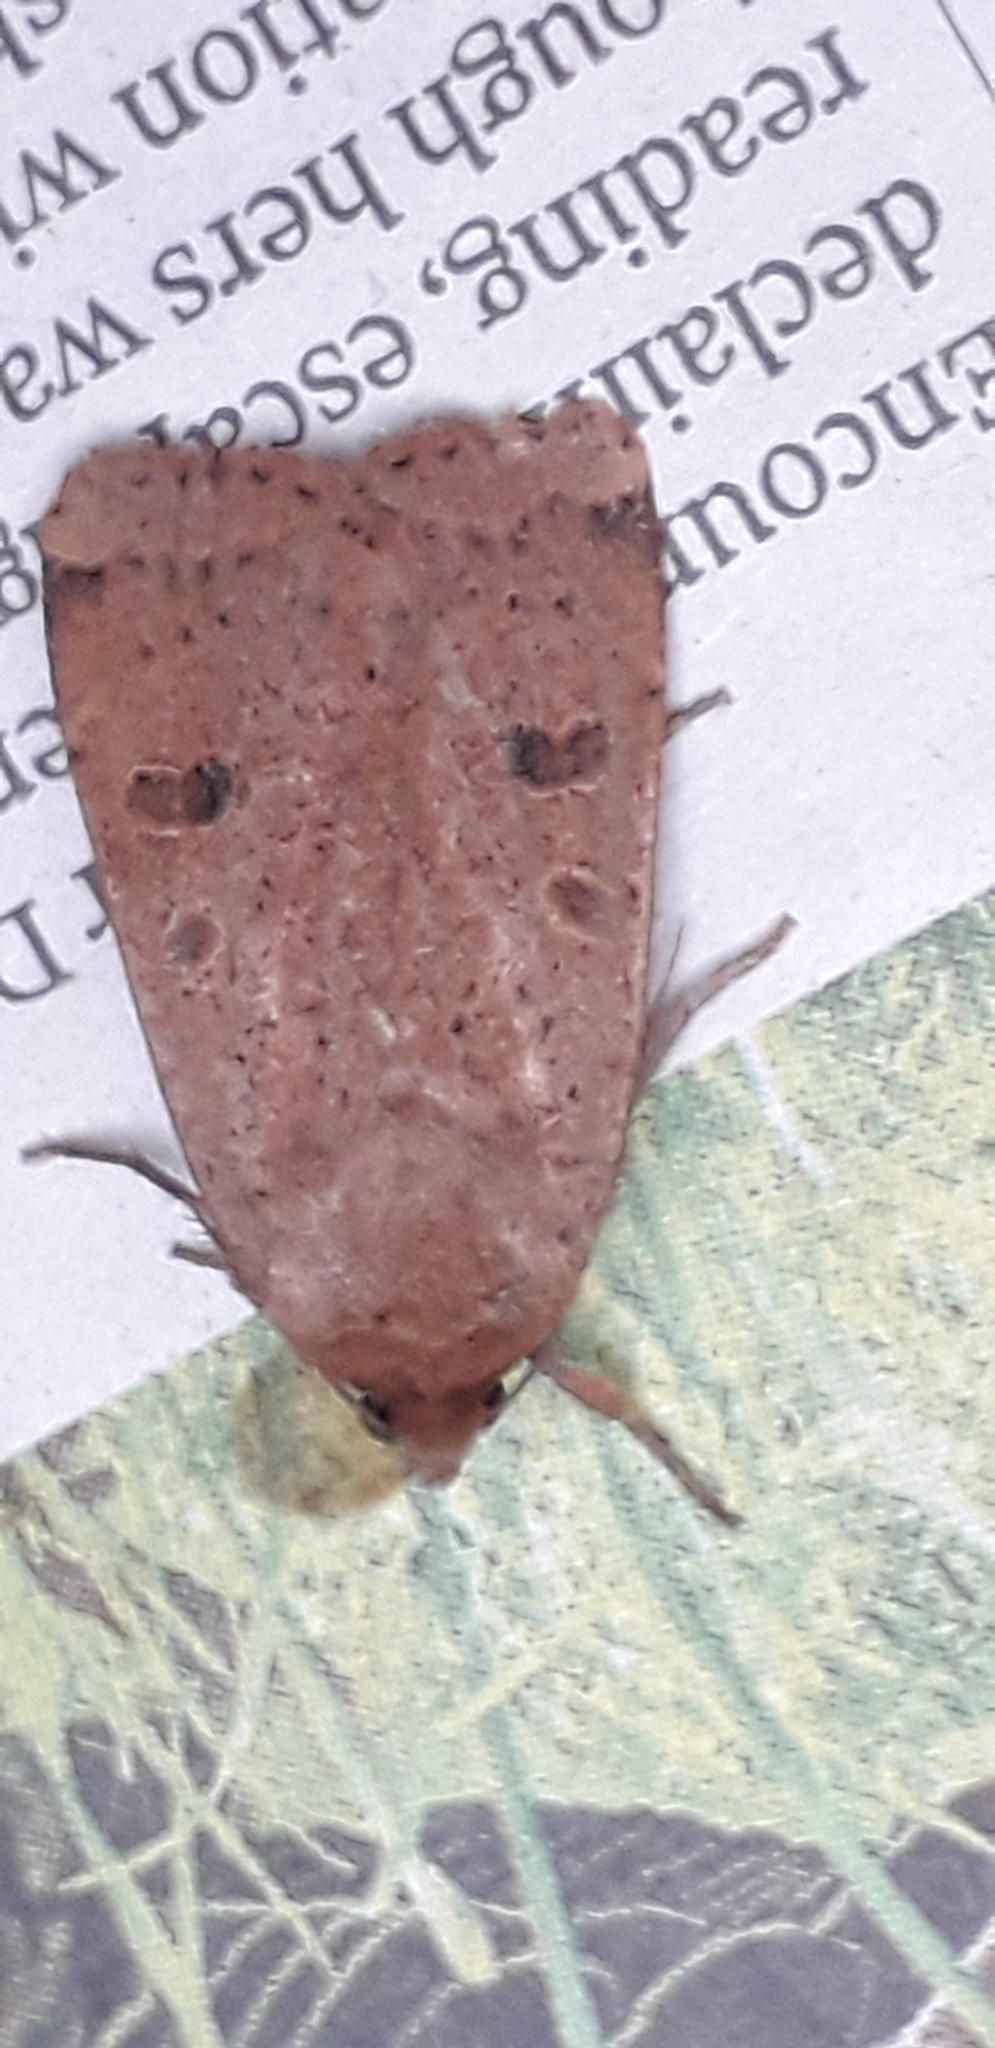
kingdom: Animalia
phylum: Arthropoda
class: Insecta
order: Lepidoptera
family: Noctuidae
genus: Noctua
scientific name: Noctua comes
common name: Lesser yellow underwing
